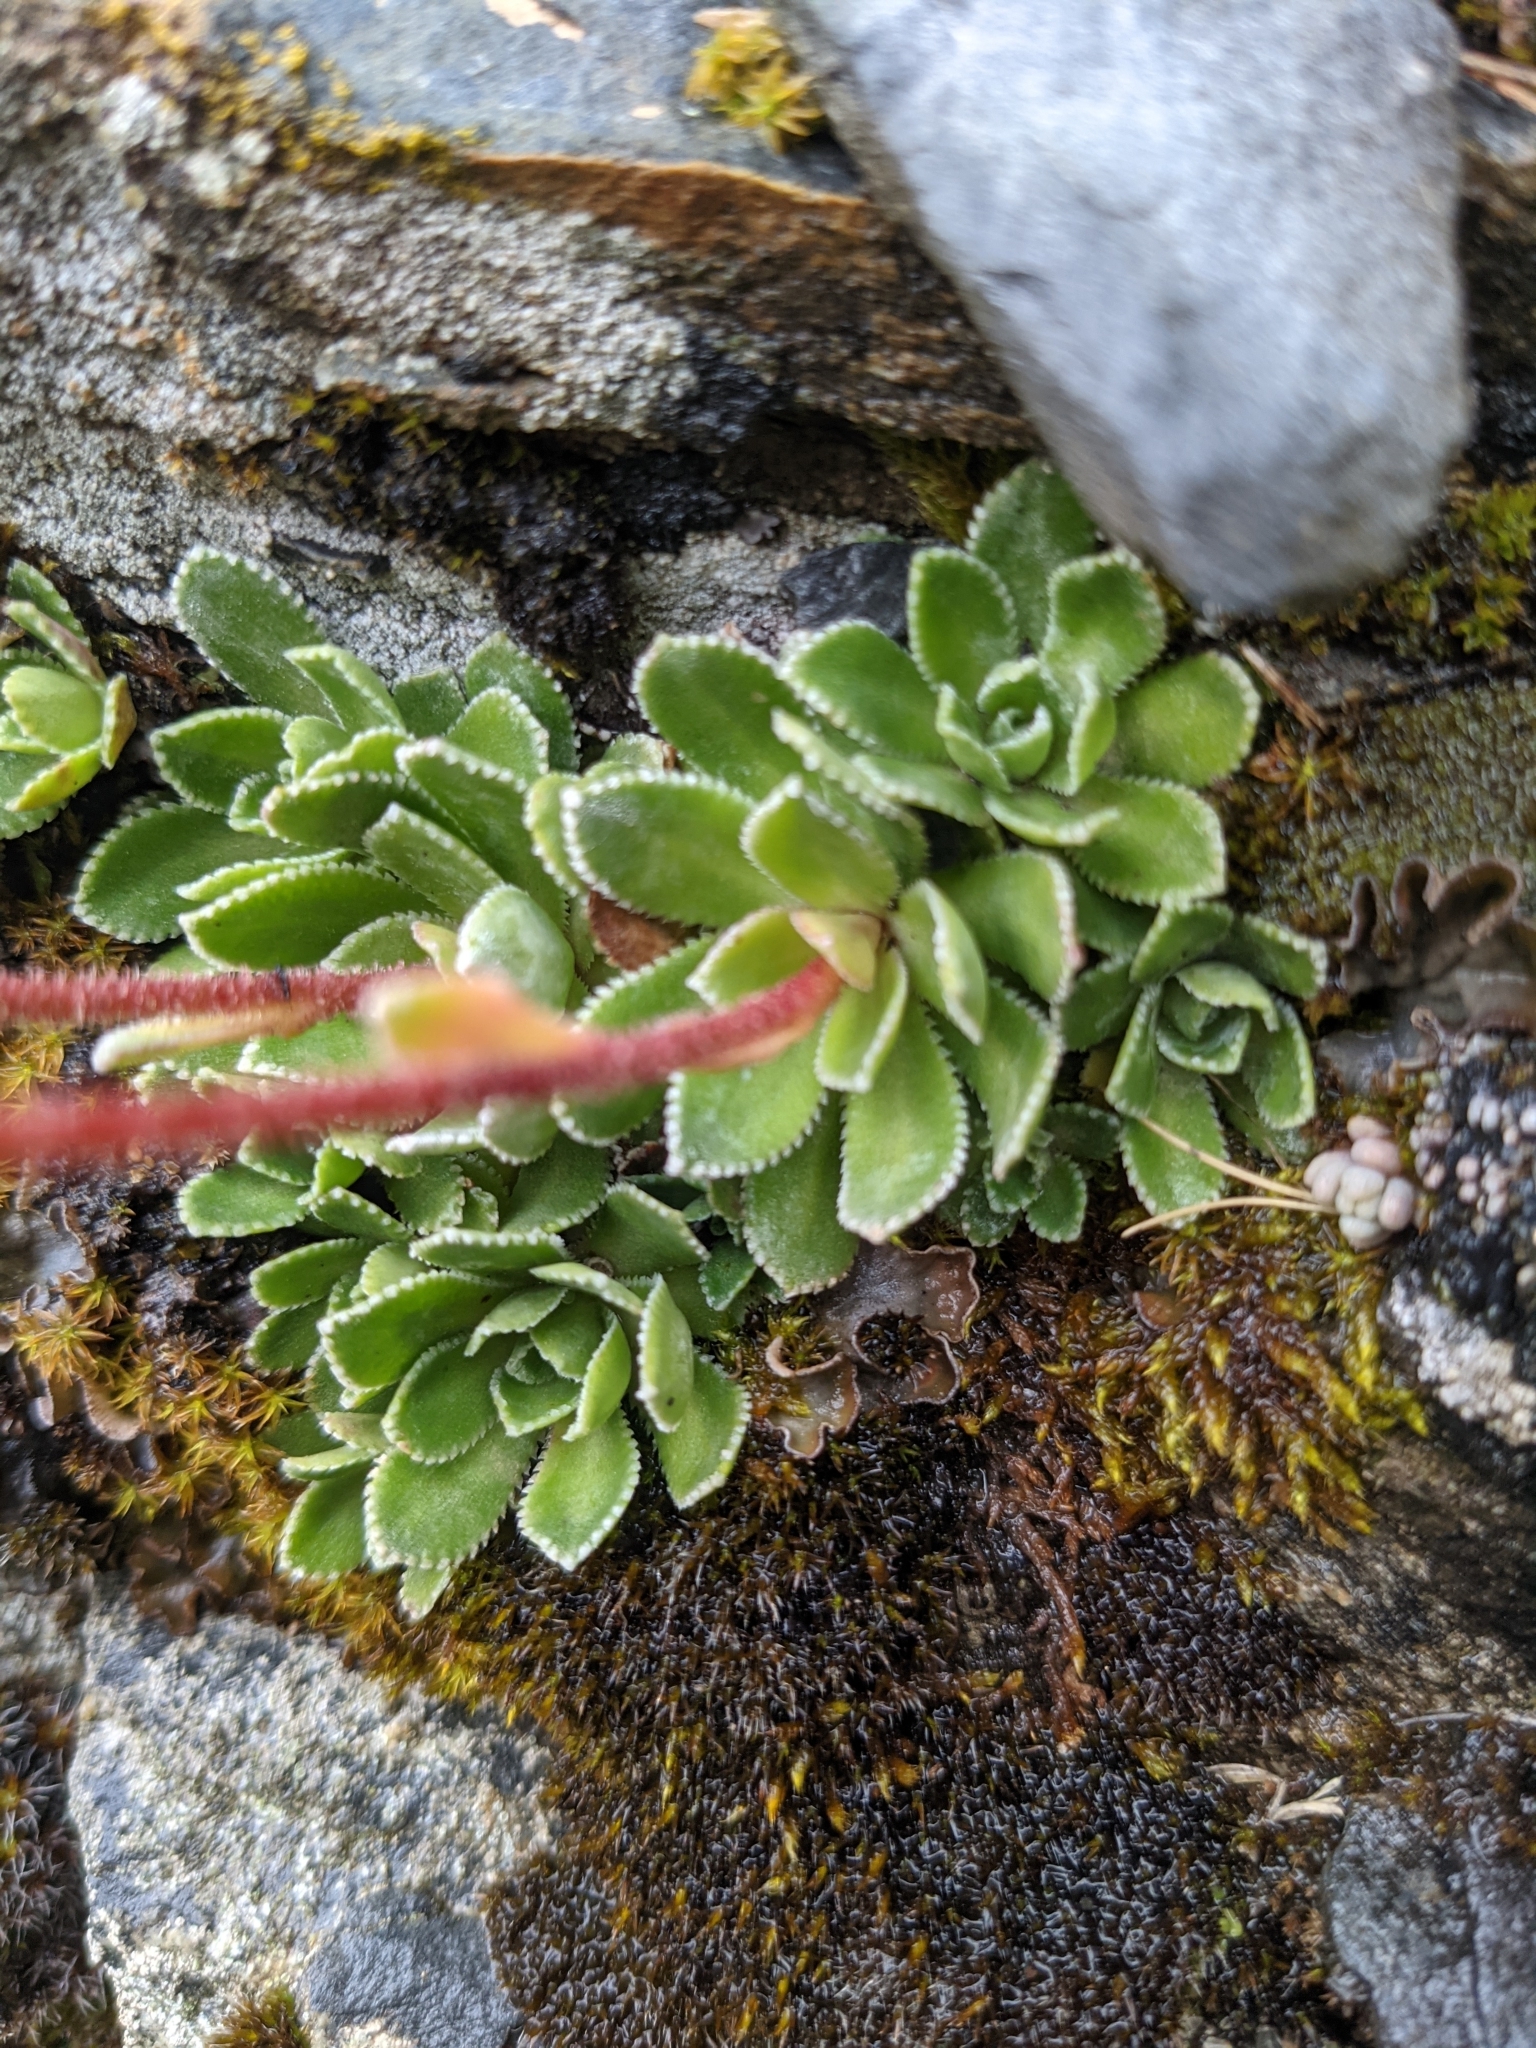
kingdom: Plantae
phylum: Tracheophyta
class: Magnoliopsida
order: Saxifragales
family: Saxifragaceae
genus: Saxifraga
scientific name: Saxifraga paniculata
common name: Livelong saxifrage
